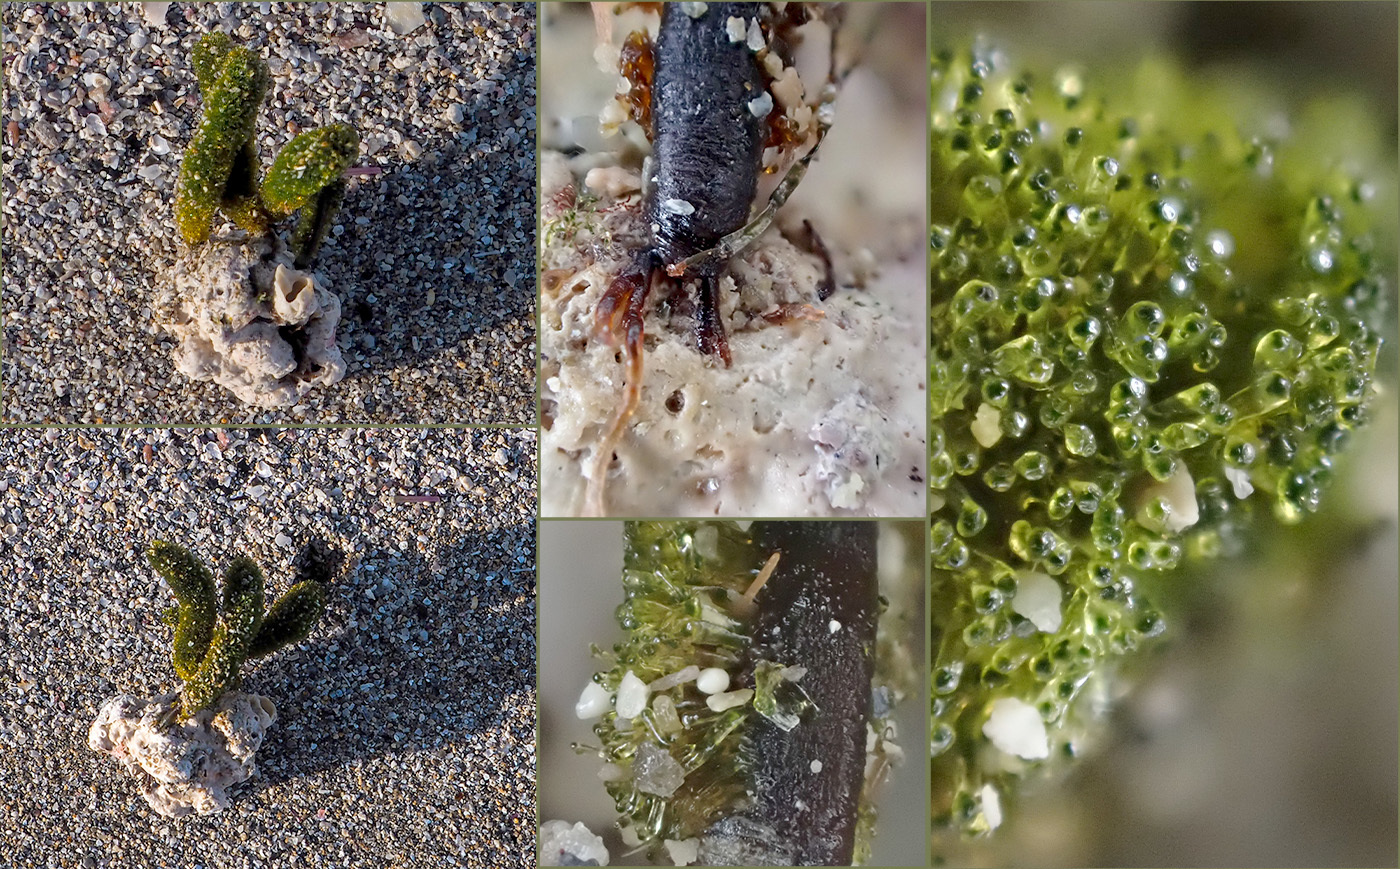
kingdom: Plantae
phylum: Chlorophyta
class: Ulvophyceae
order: Dasycladales
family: Dasycladaceae
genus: Dasycladus
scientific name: Dasycladus vermicularis
